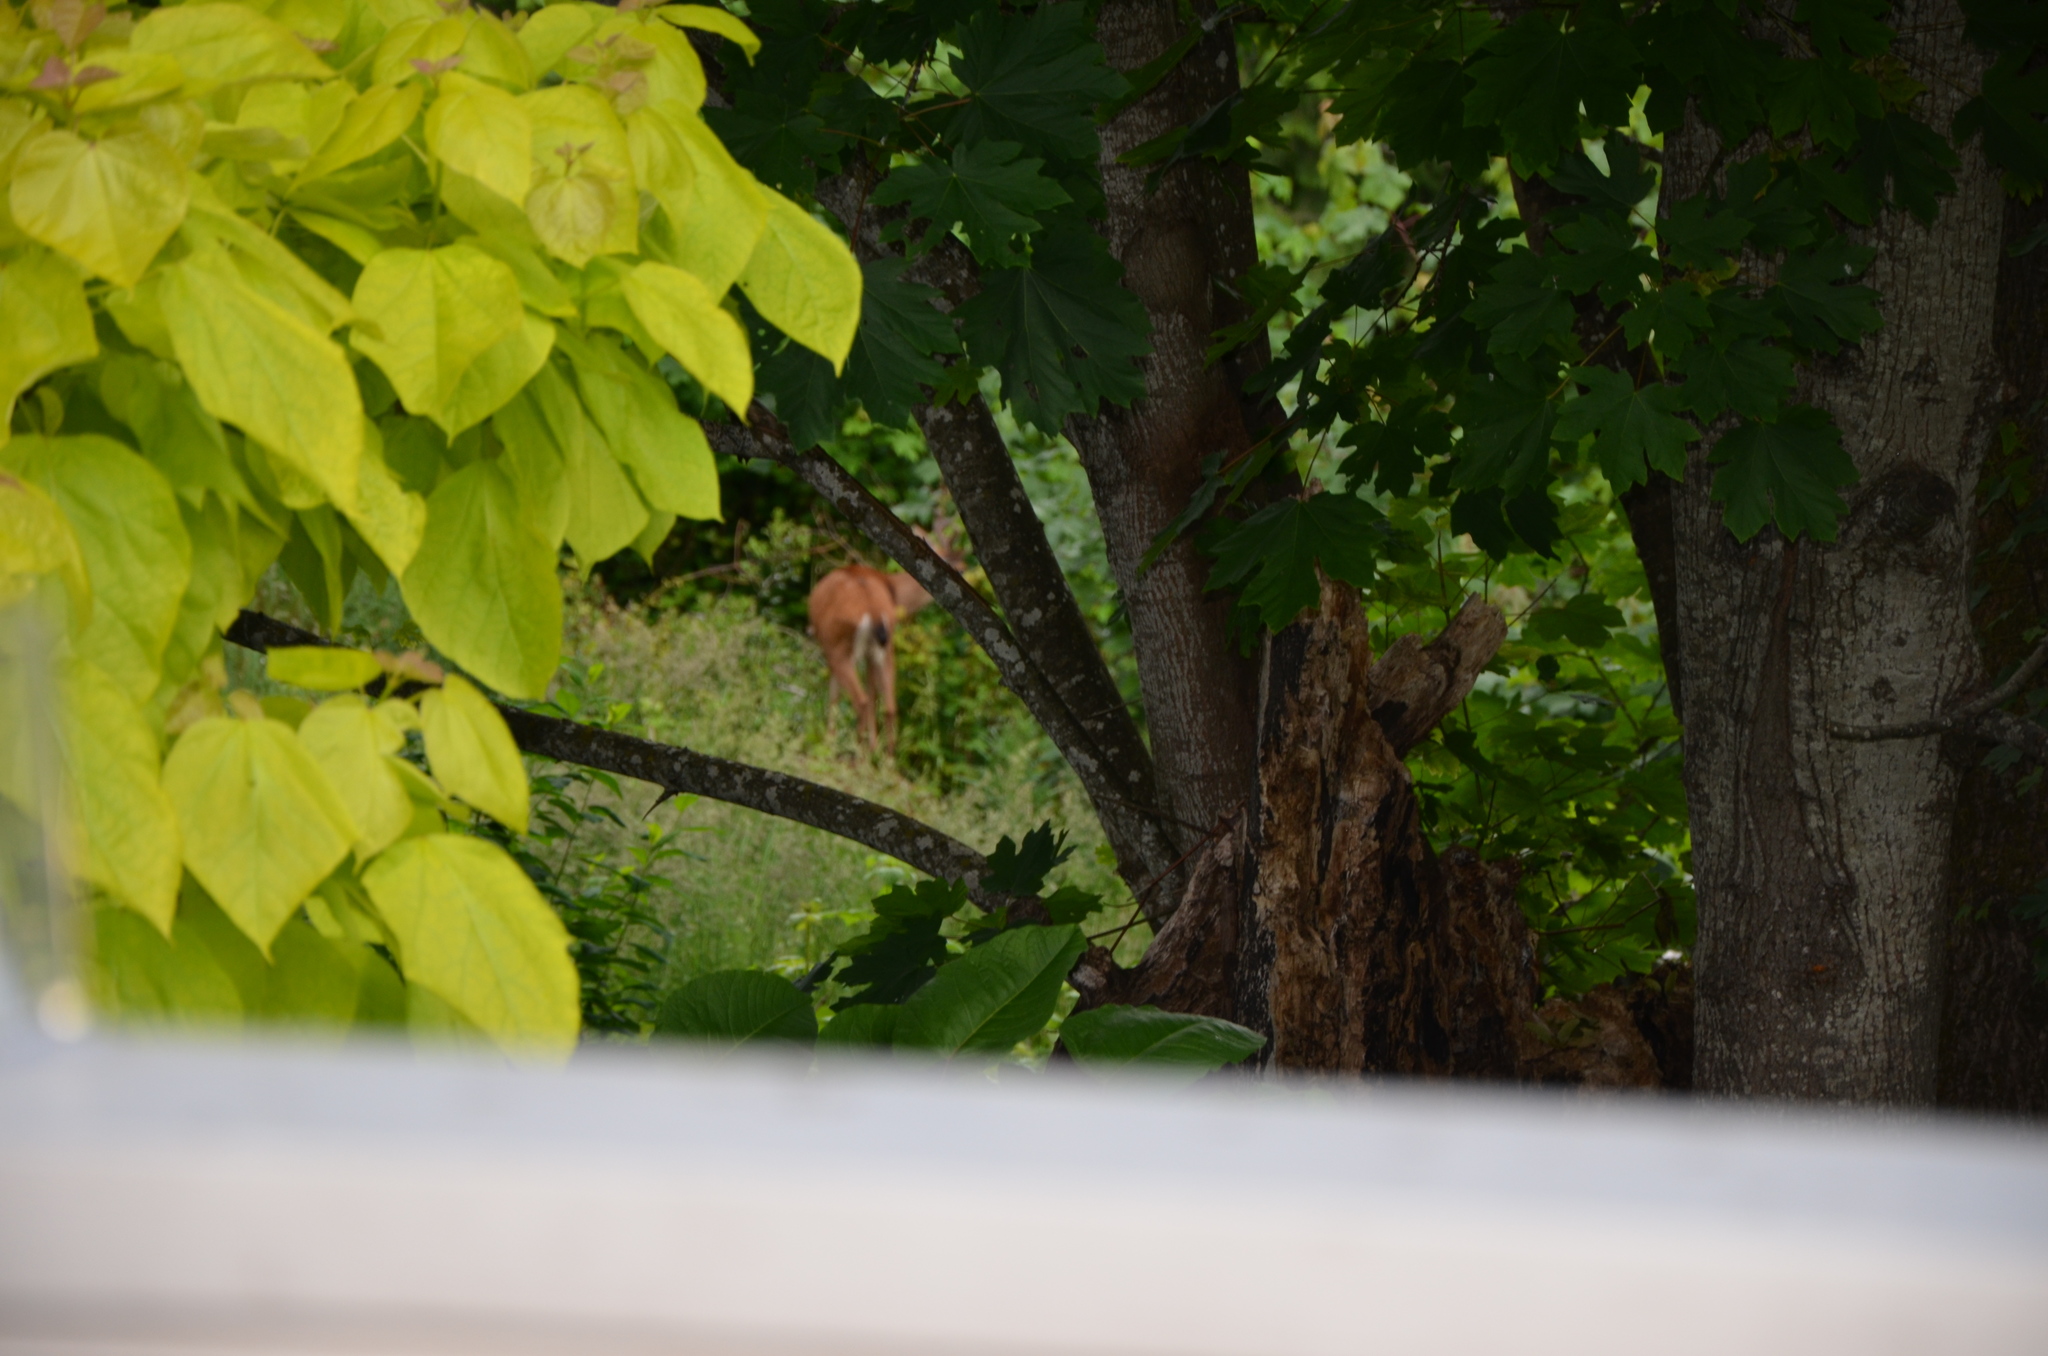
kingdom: Animalia
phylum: Chordata
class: Mammalia
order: Artiodactyla
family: Cervidae
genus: Odocoileus
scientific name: Odocoileus hemionus
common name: Mule deer
